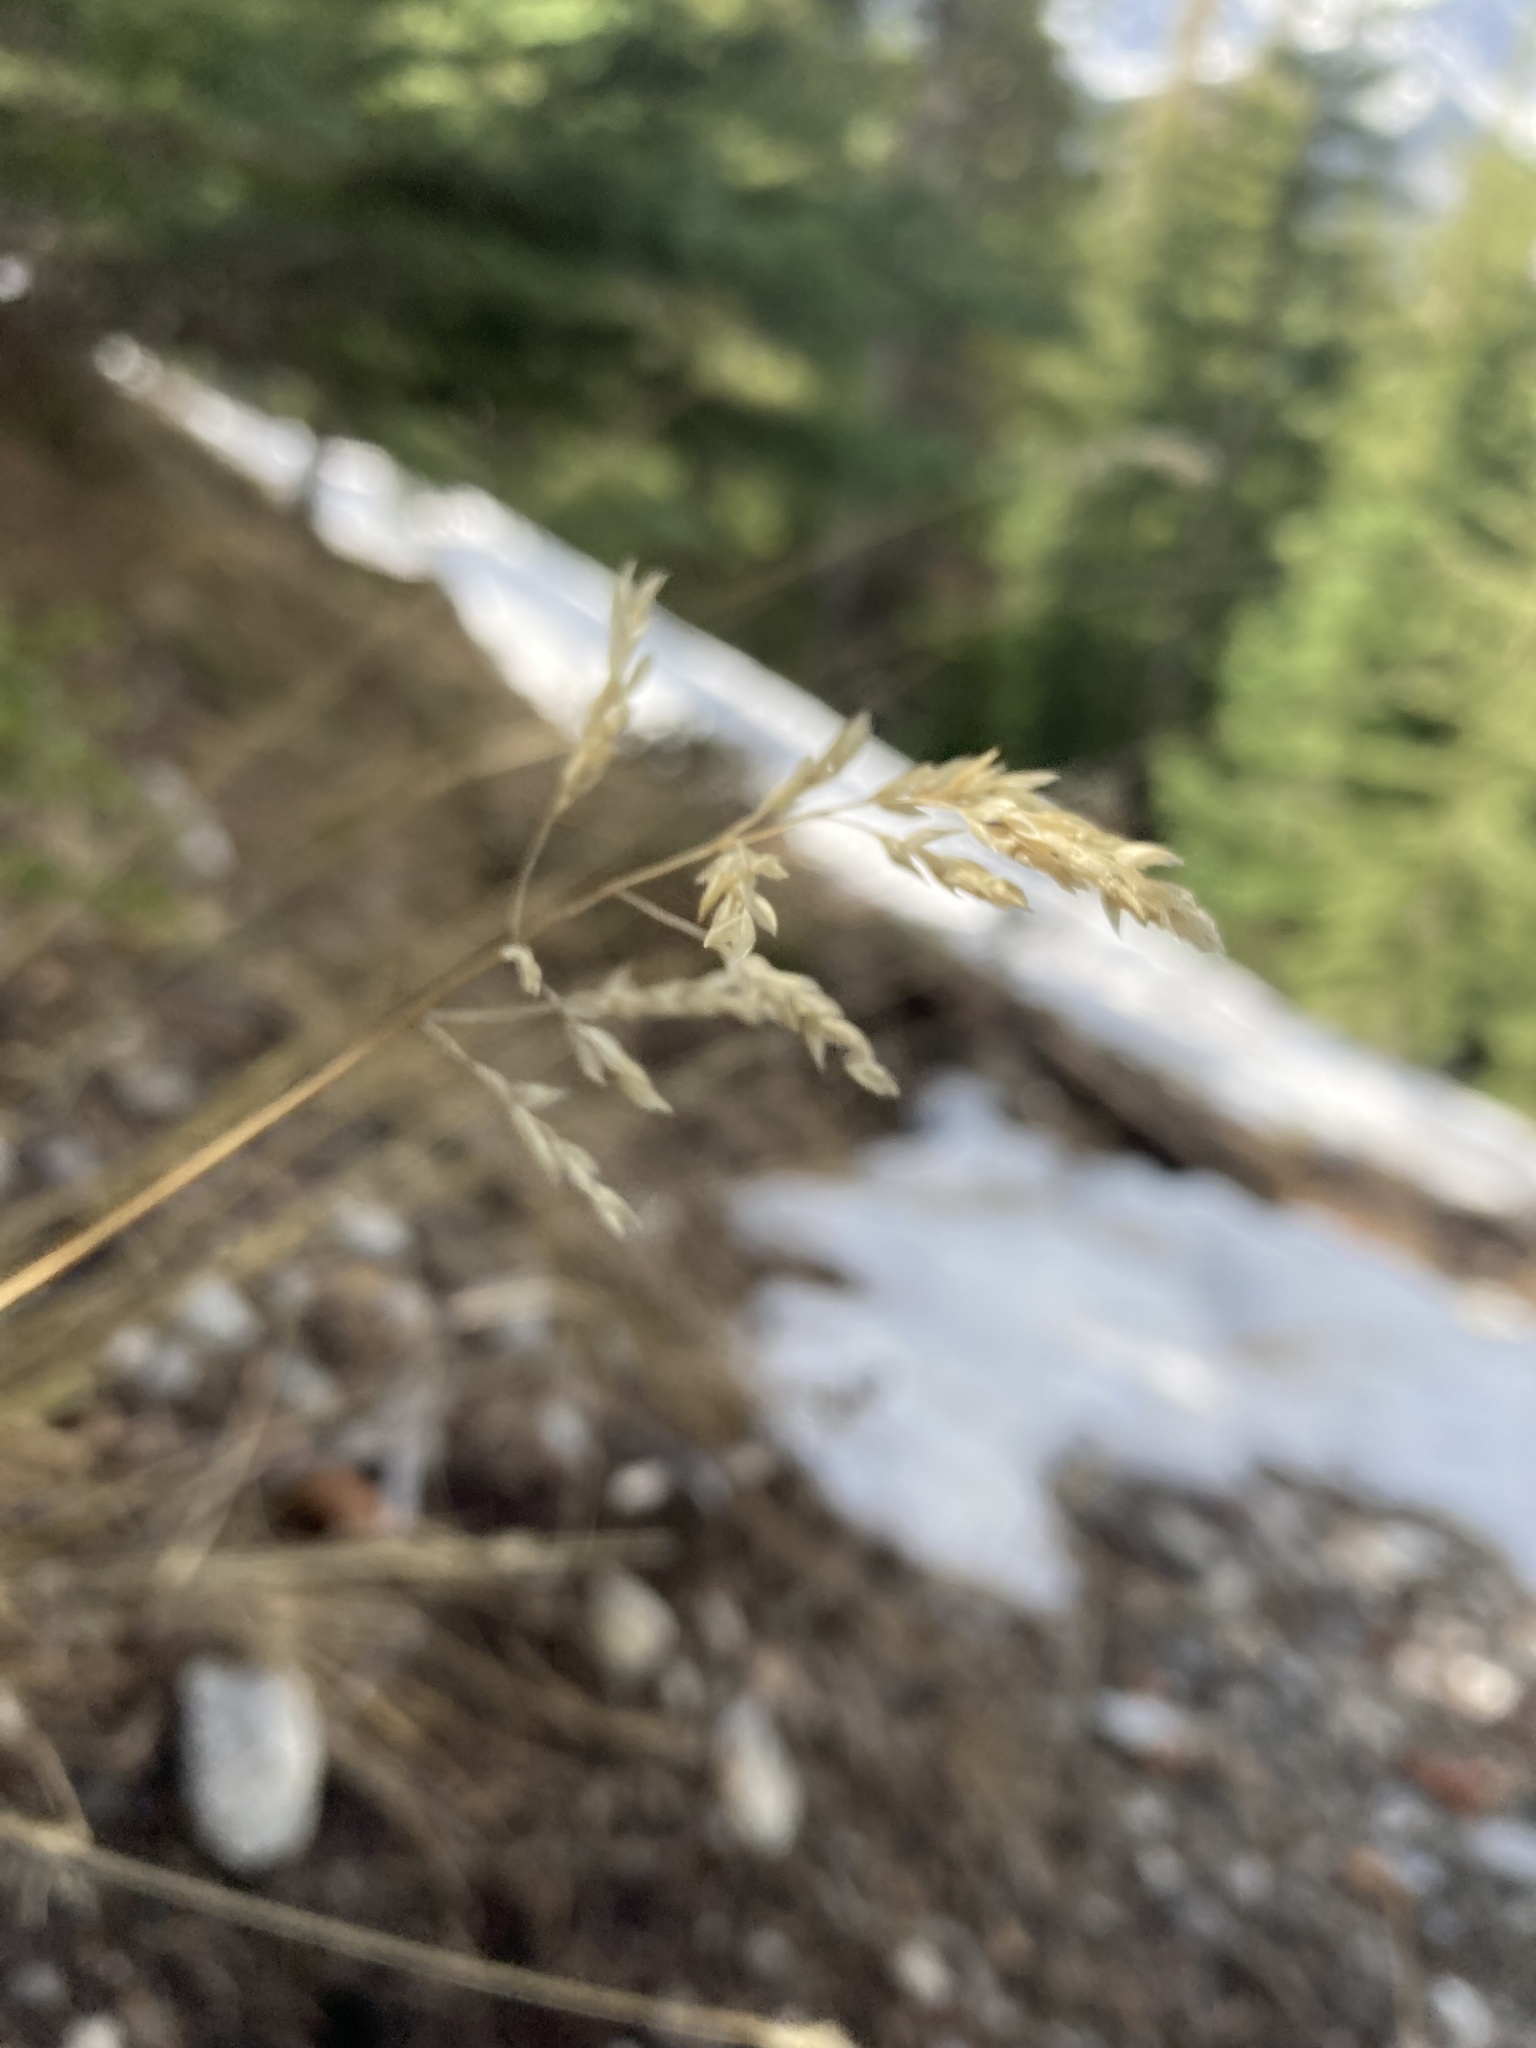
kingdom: Plantae
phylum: Tracheophyta
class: Liliopsida
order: Poales
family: Poaceae
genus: Poa
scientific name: Poa pratensis
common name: Kentucky bluegrass
